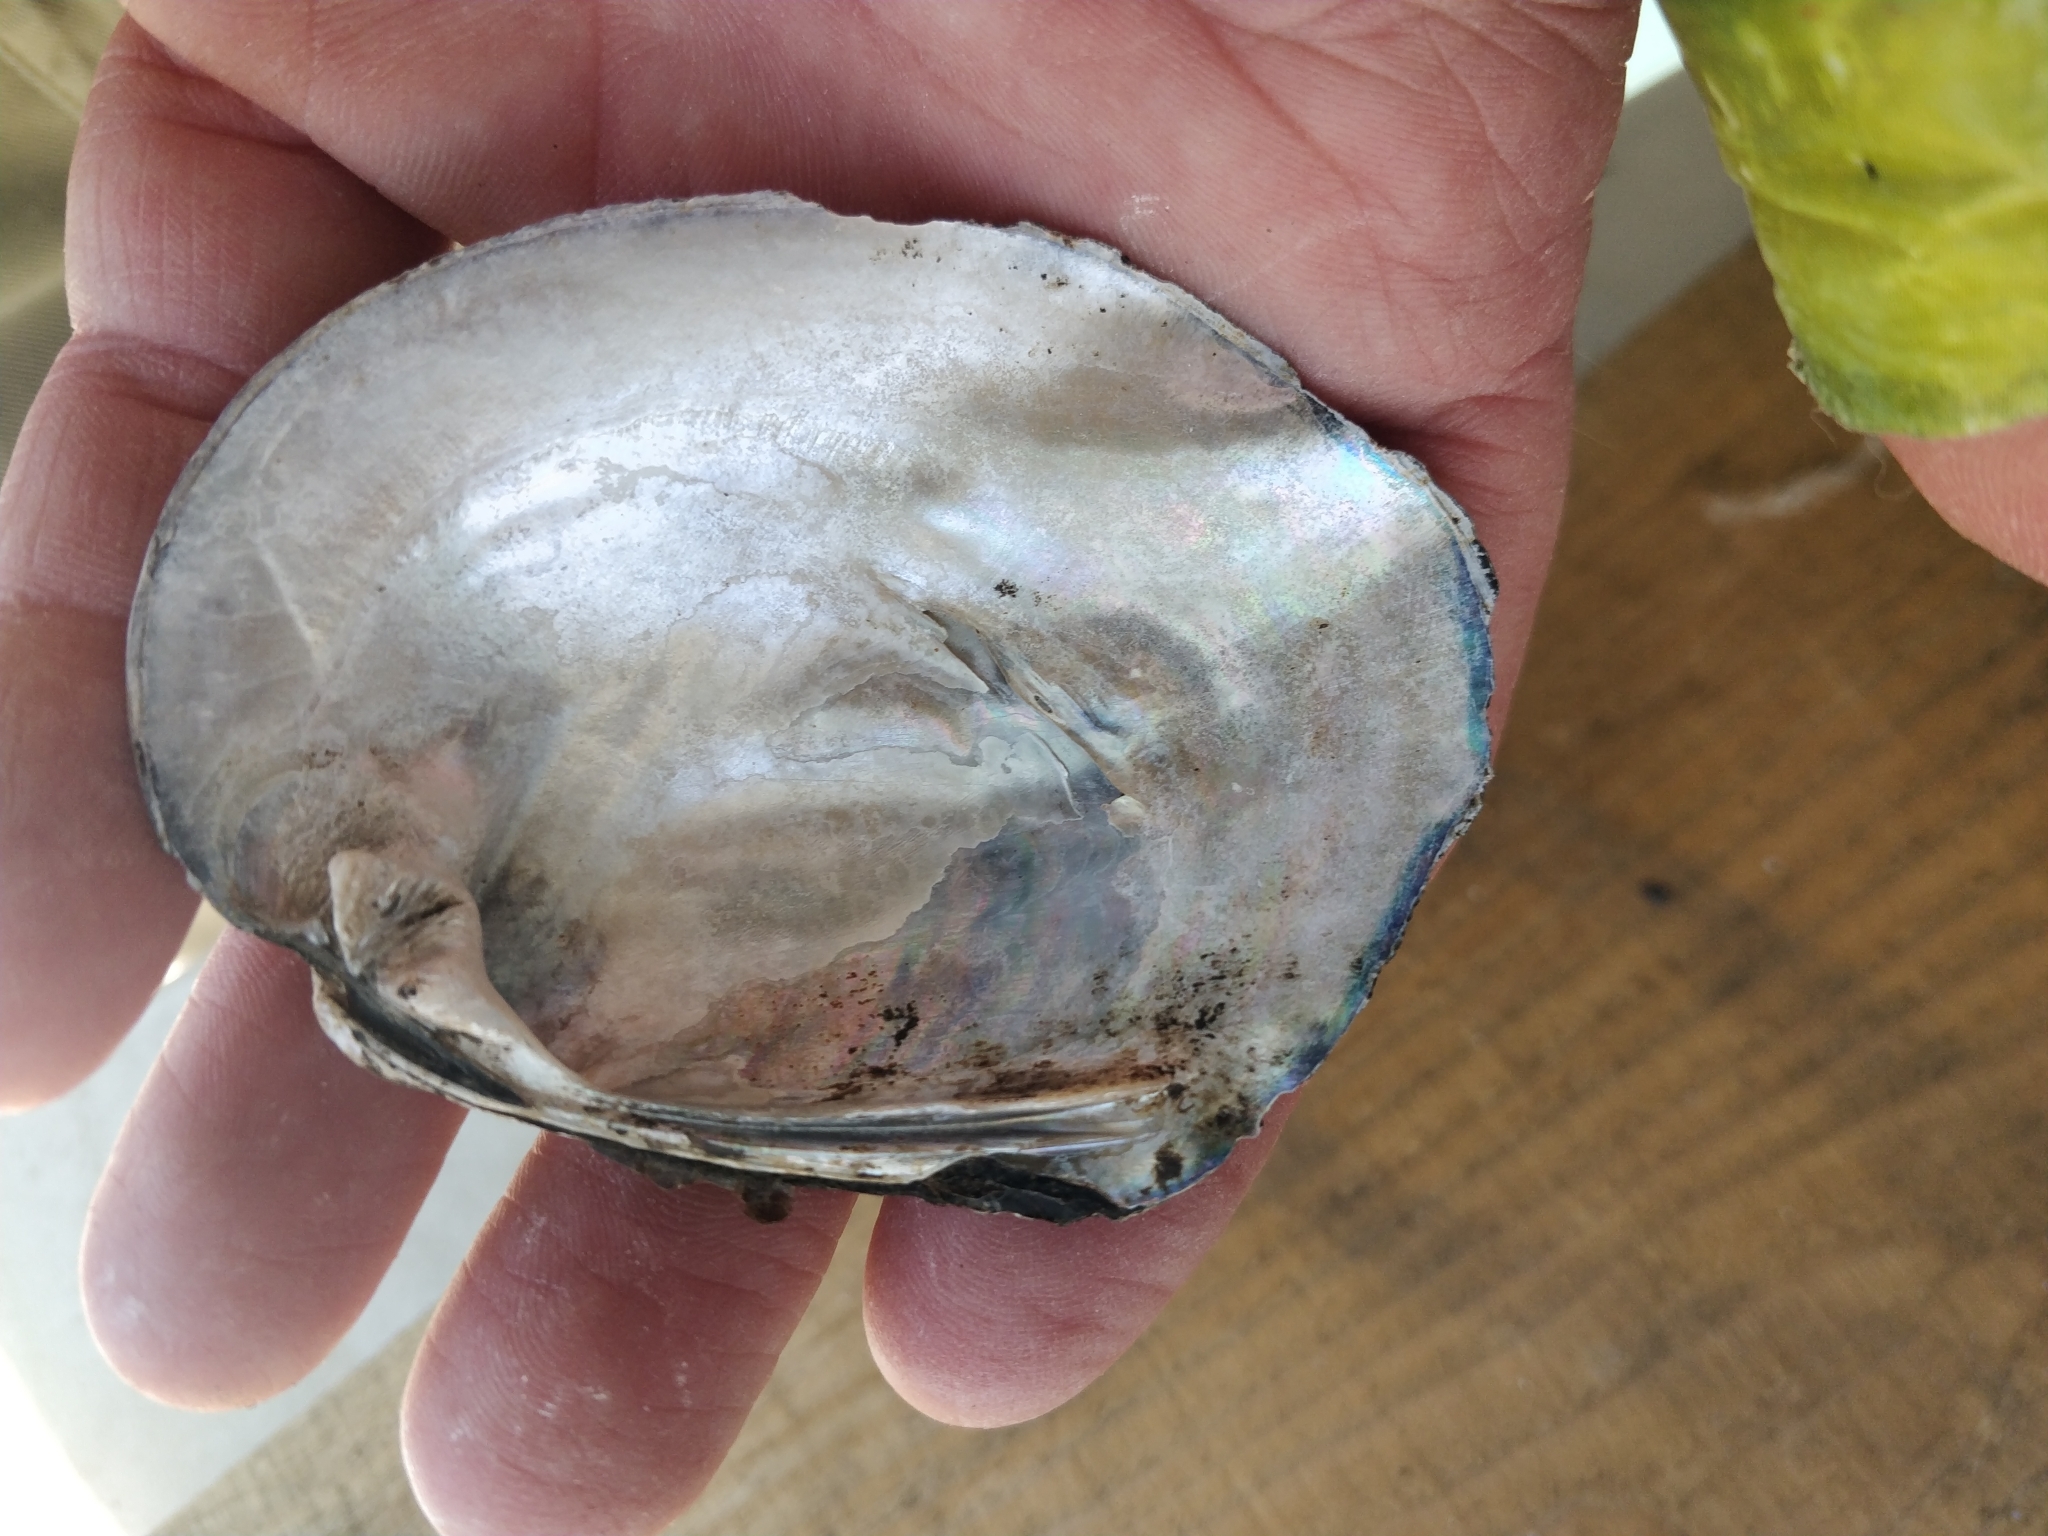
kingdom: Animalia
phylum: Mollusca
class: Bivalvia
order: Unionida
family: Unionidae
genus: Amblema
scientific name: Amblema plicata
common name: Threeridge
